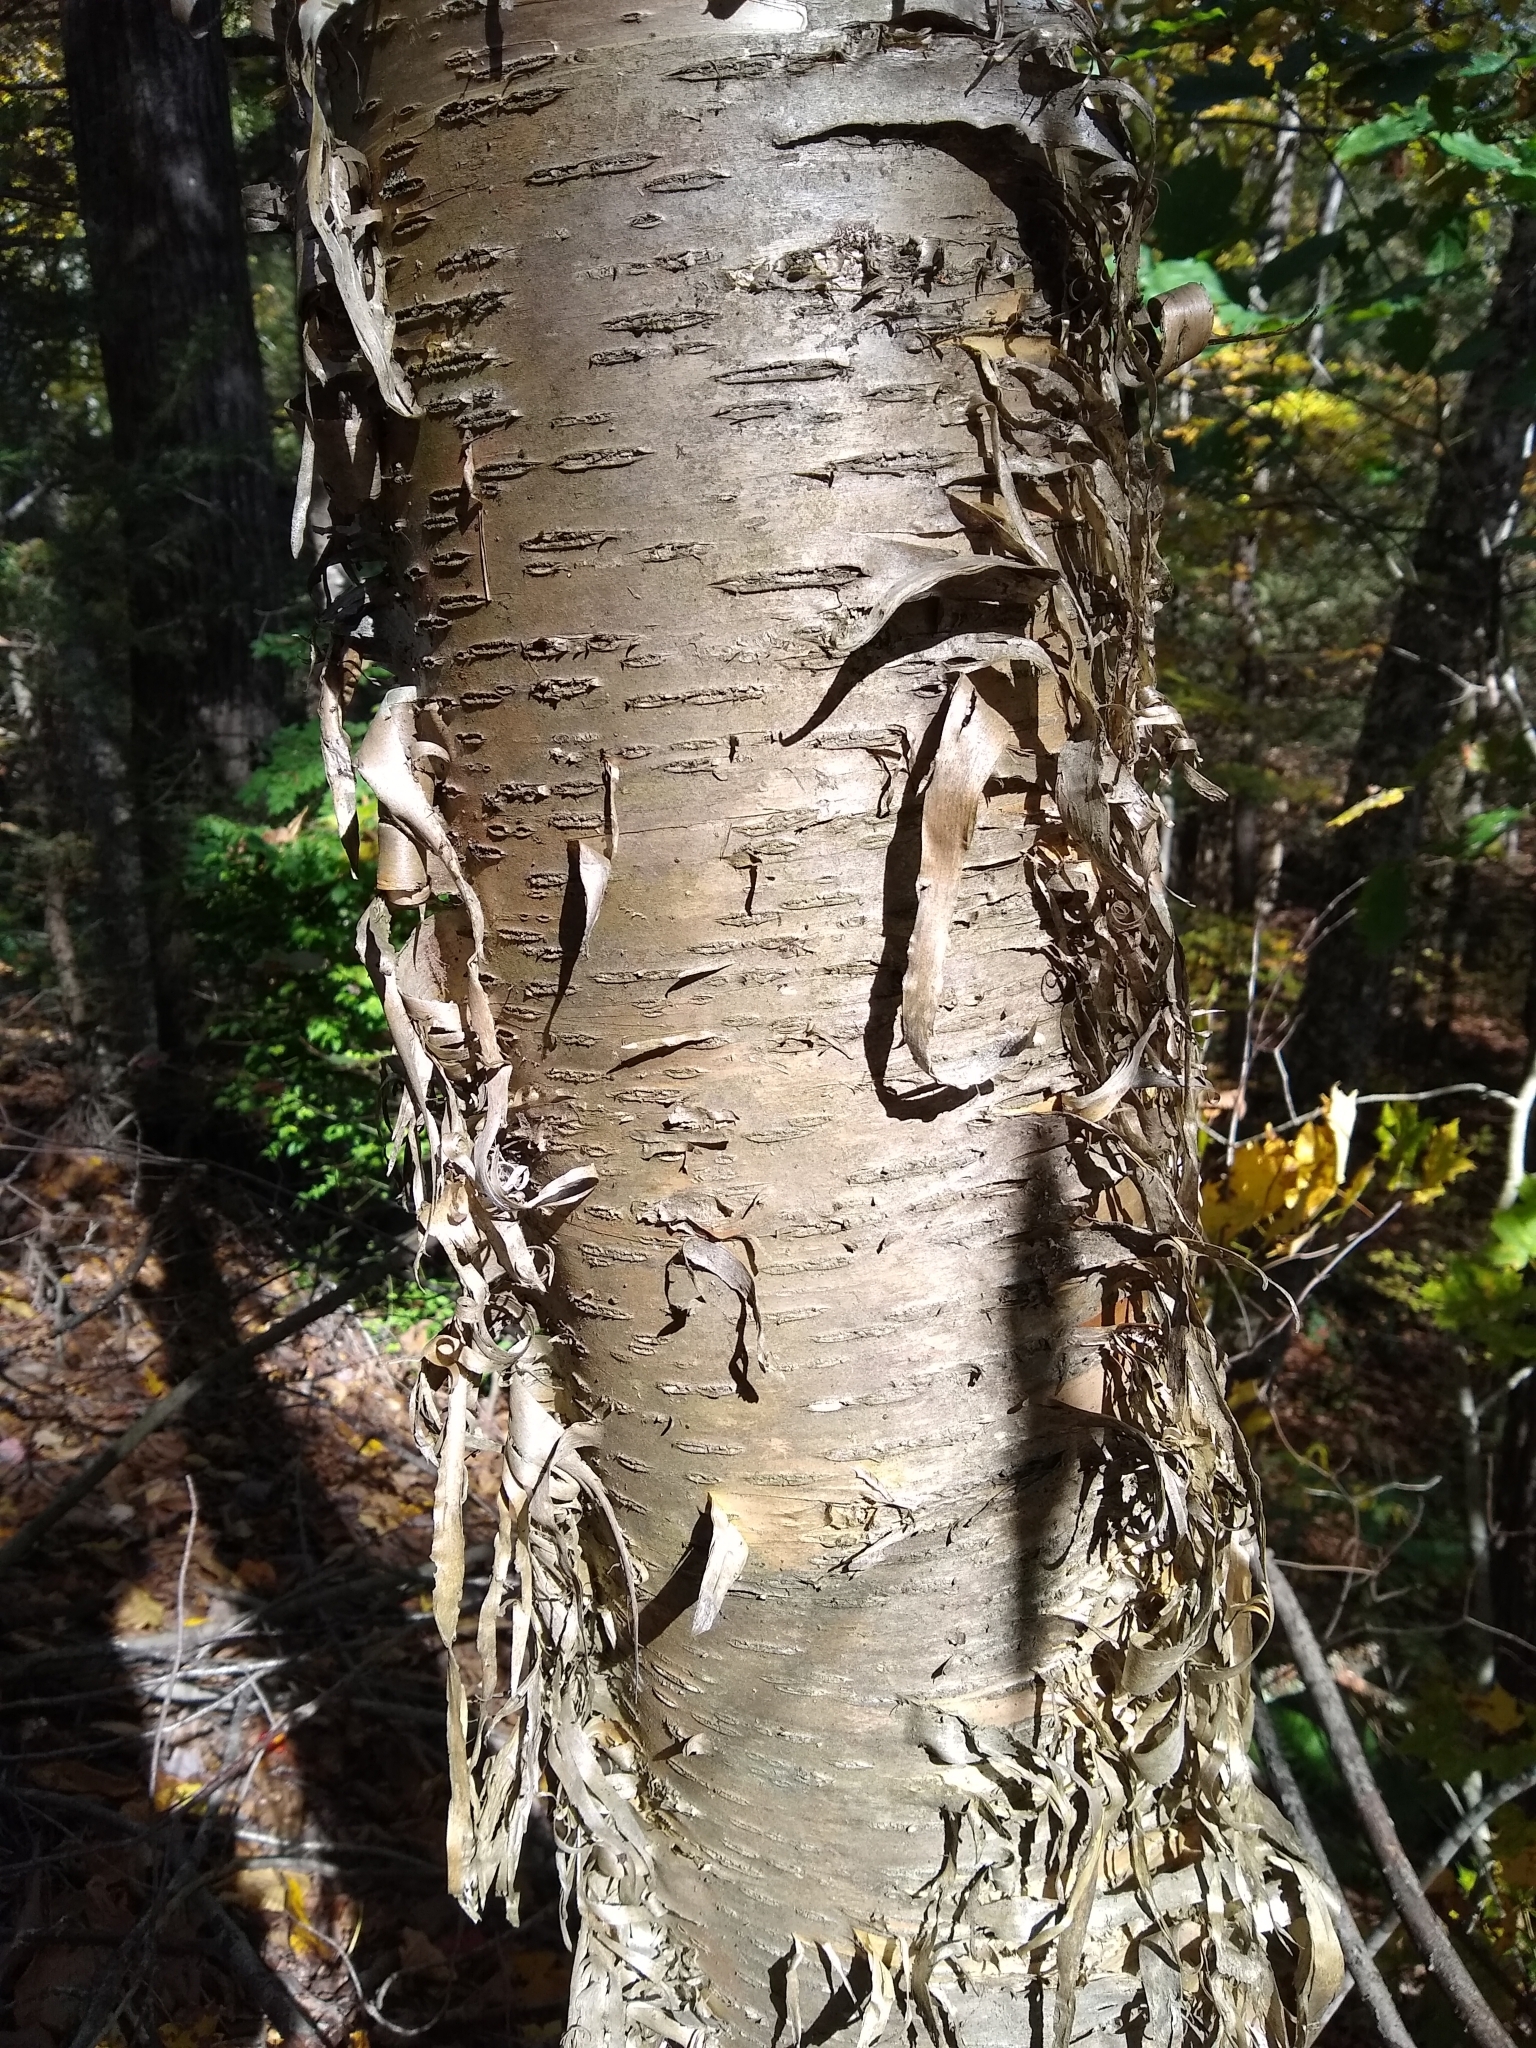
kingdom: Plantae
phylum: Tracheophyta
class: Magnoliopsida
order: Fagales
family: Betulaceae
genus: Betula
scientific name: Betula alleghaniensis
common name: Yellow birch
